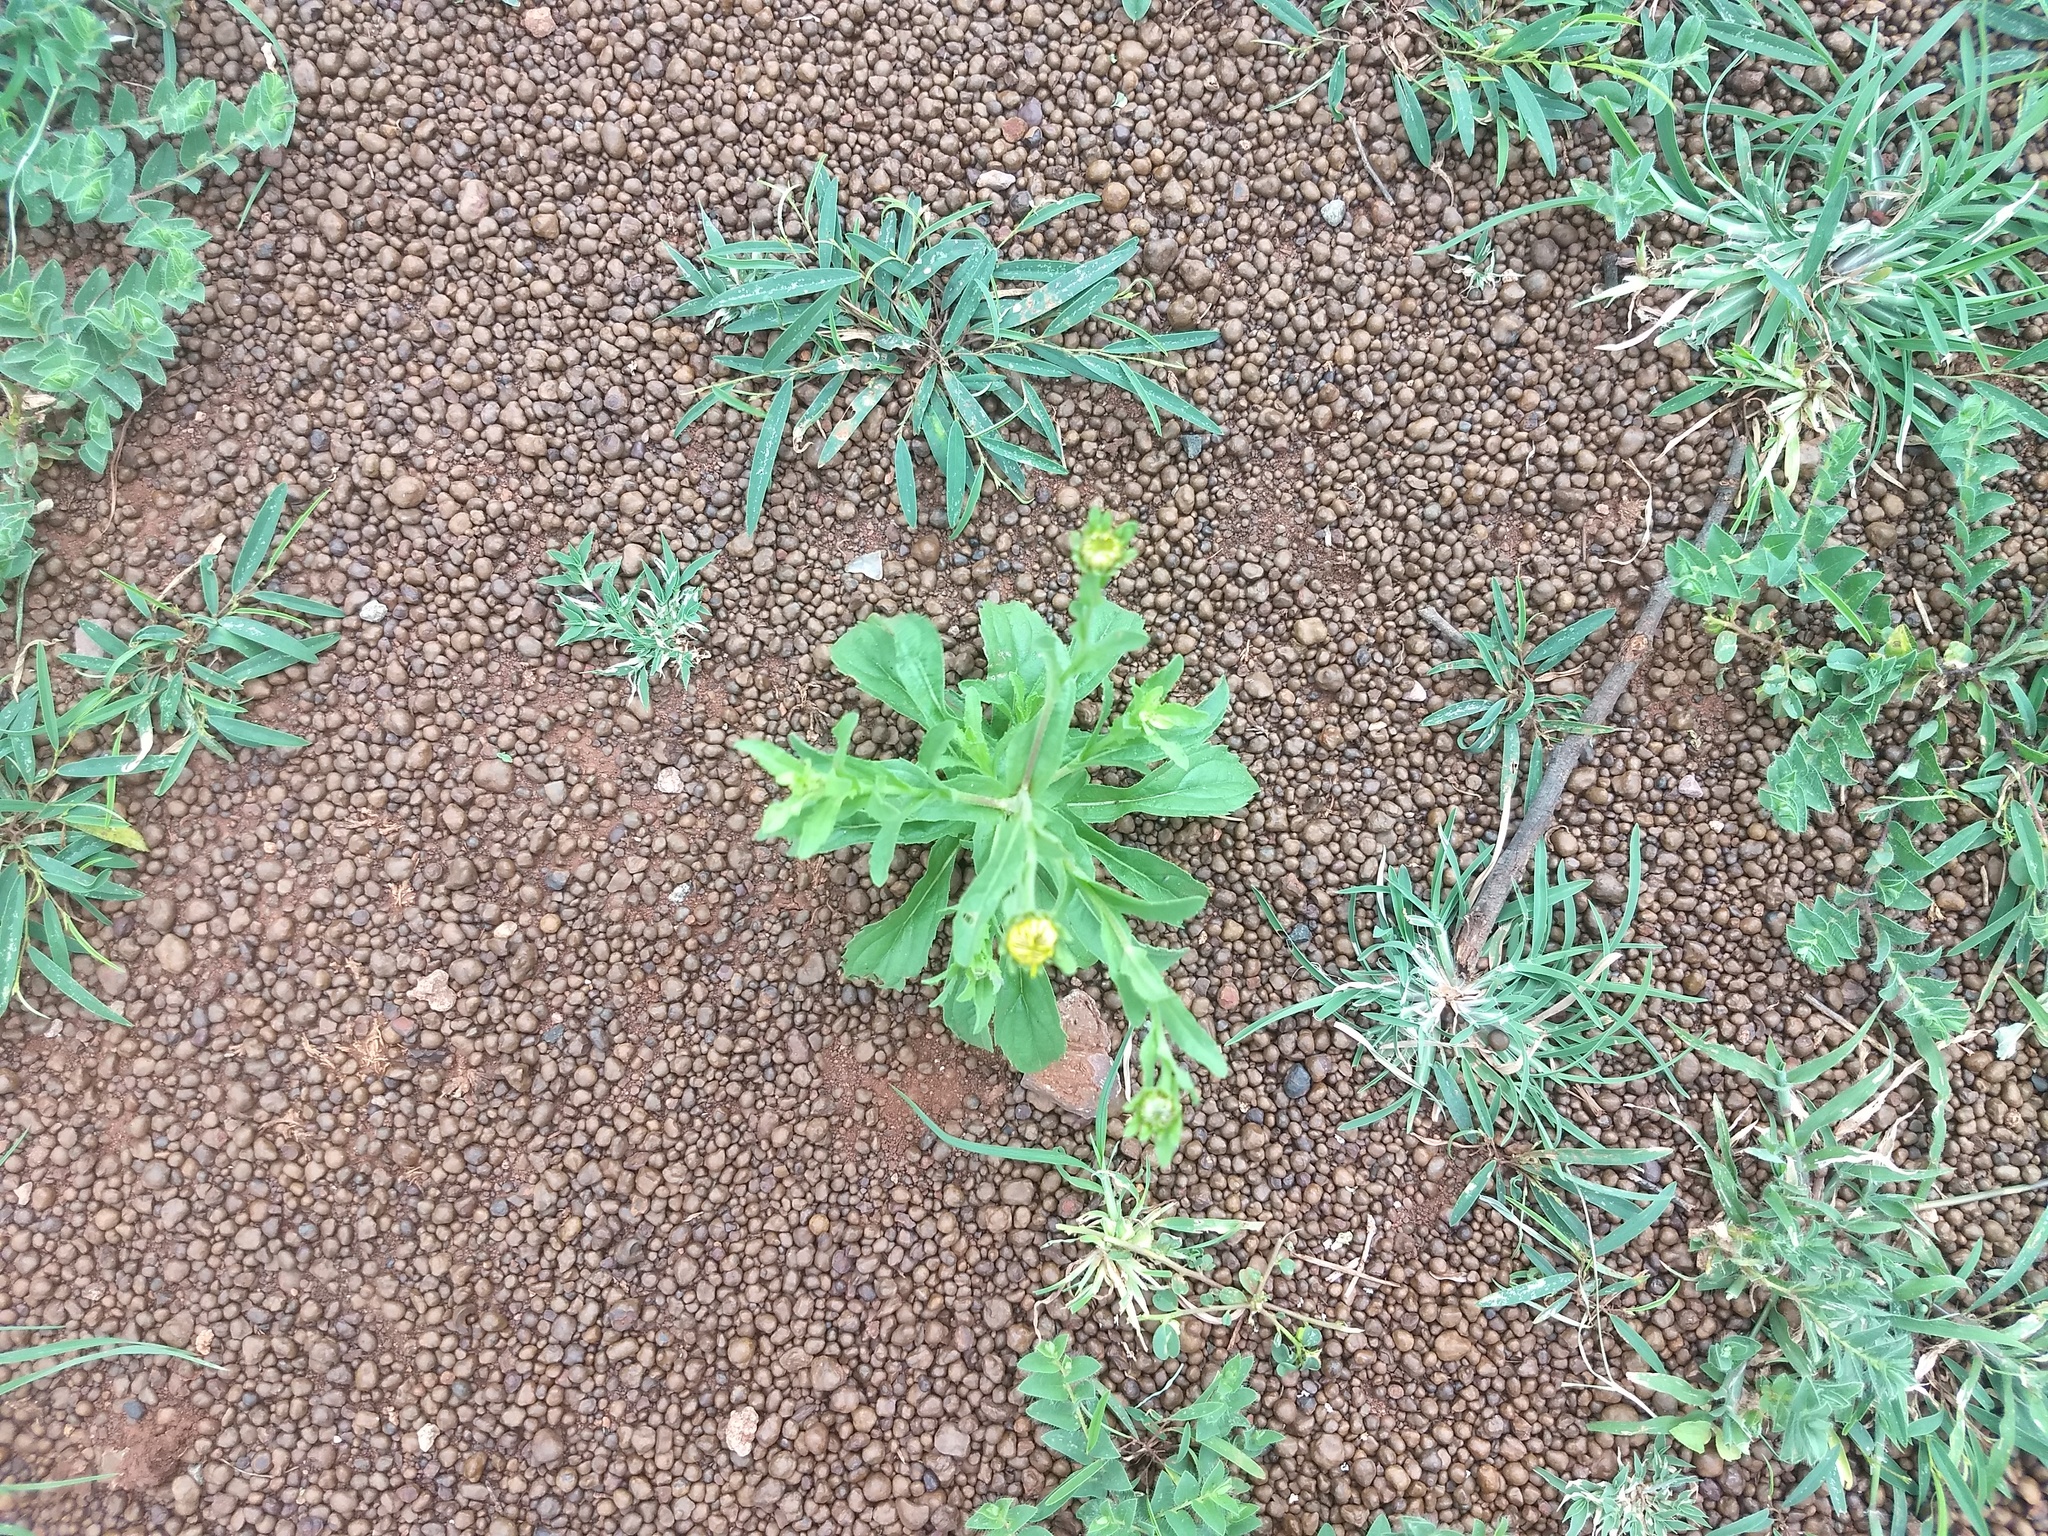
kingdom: Plantae
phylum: Tracheophyta
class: Magnoliopsida
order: Asterales
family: Asteraceae
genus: Pulicaria
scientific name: Pulicaria wightiana
